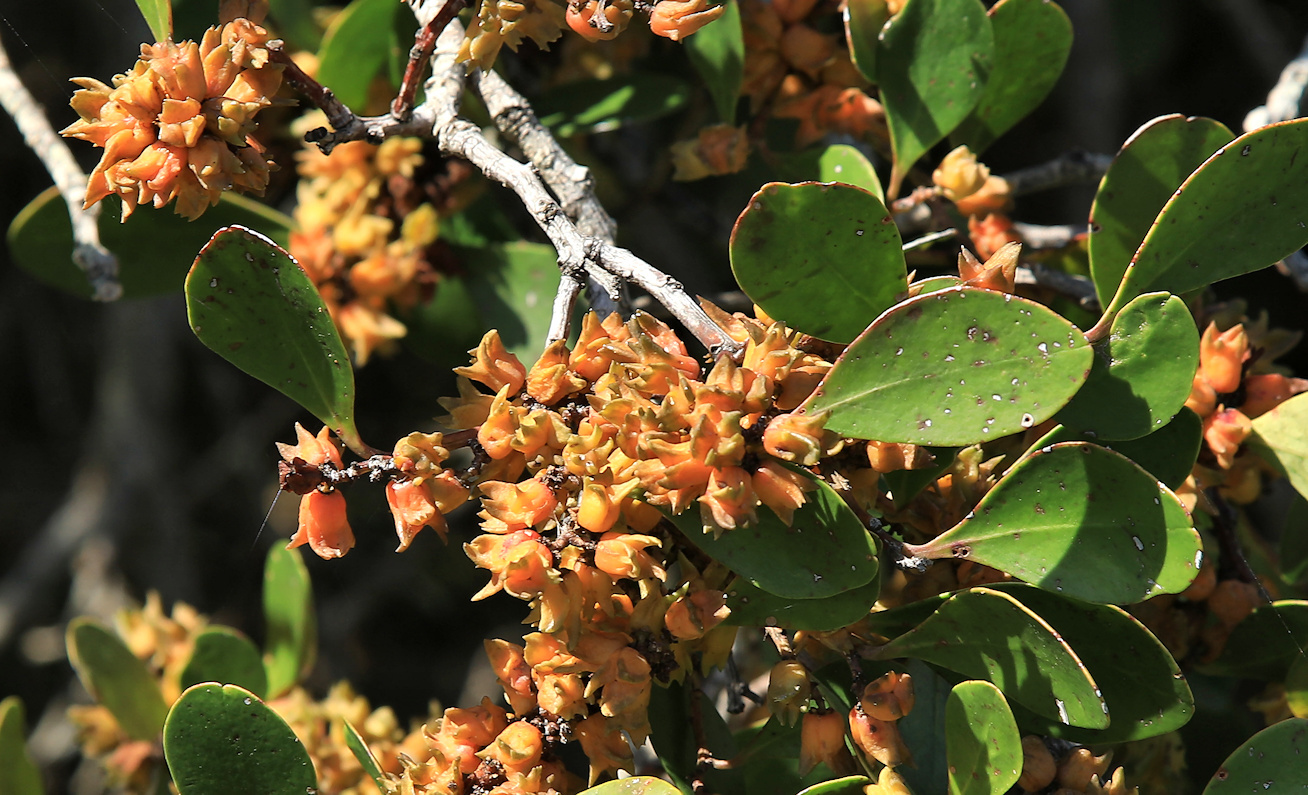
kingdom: Plantae
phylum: Tracheophyta
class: Magnoliopsida
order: Celastrales
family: Celastraceae
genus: Pterocelastrus
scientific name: Pterocelastrus tricuspidatus
